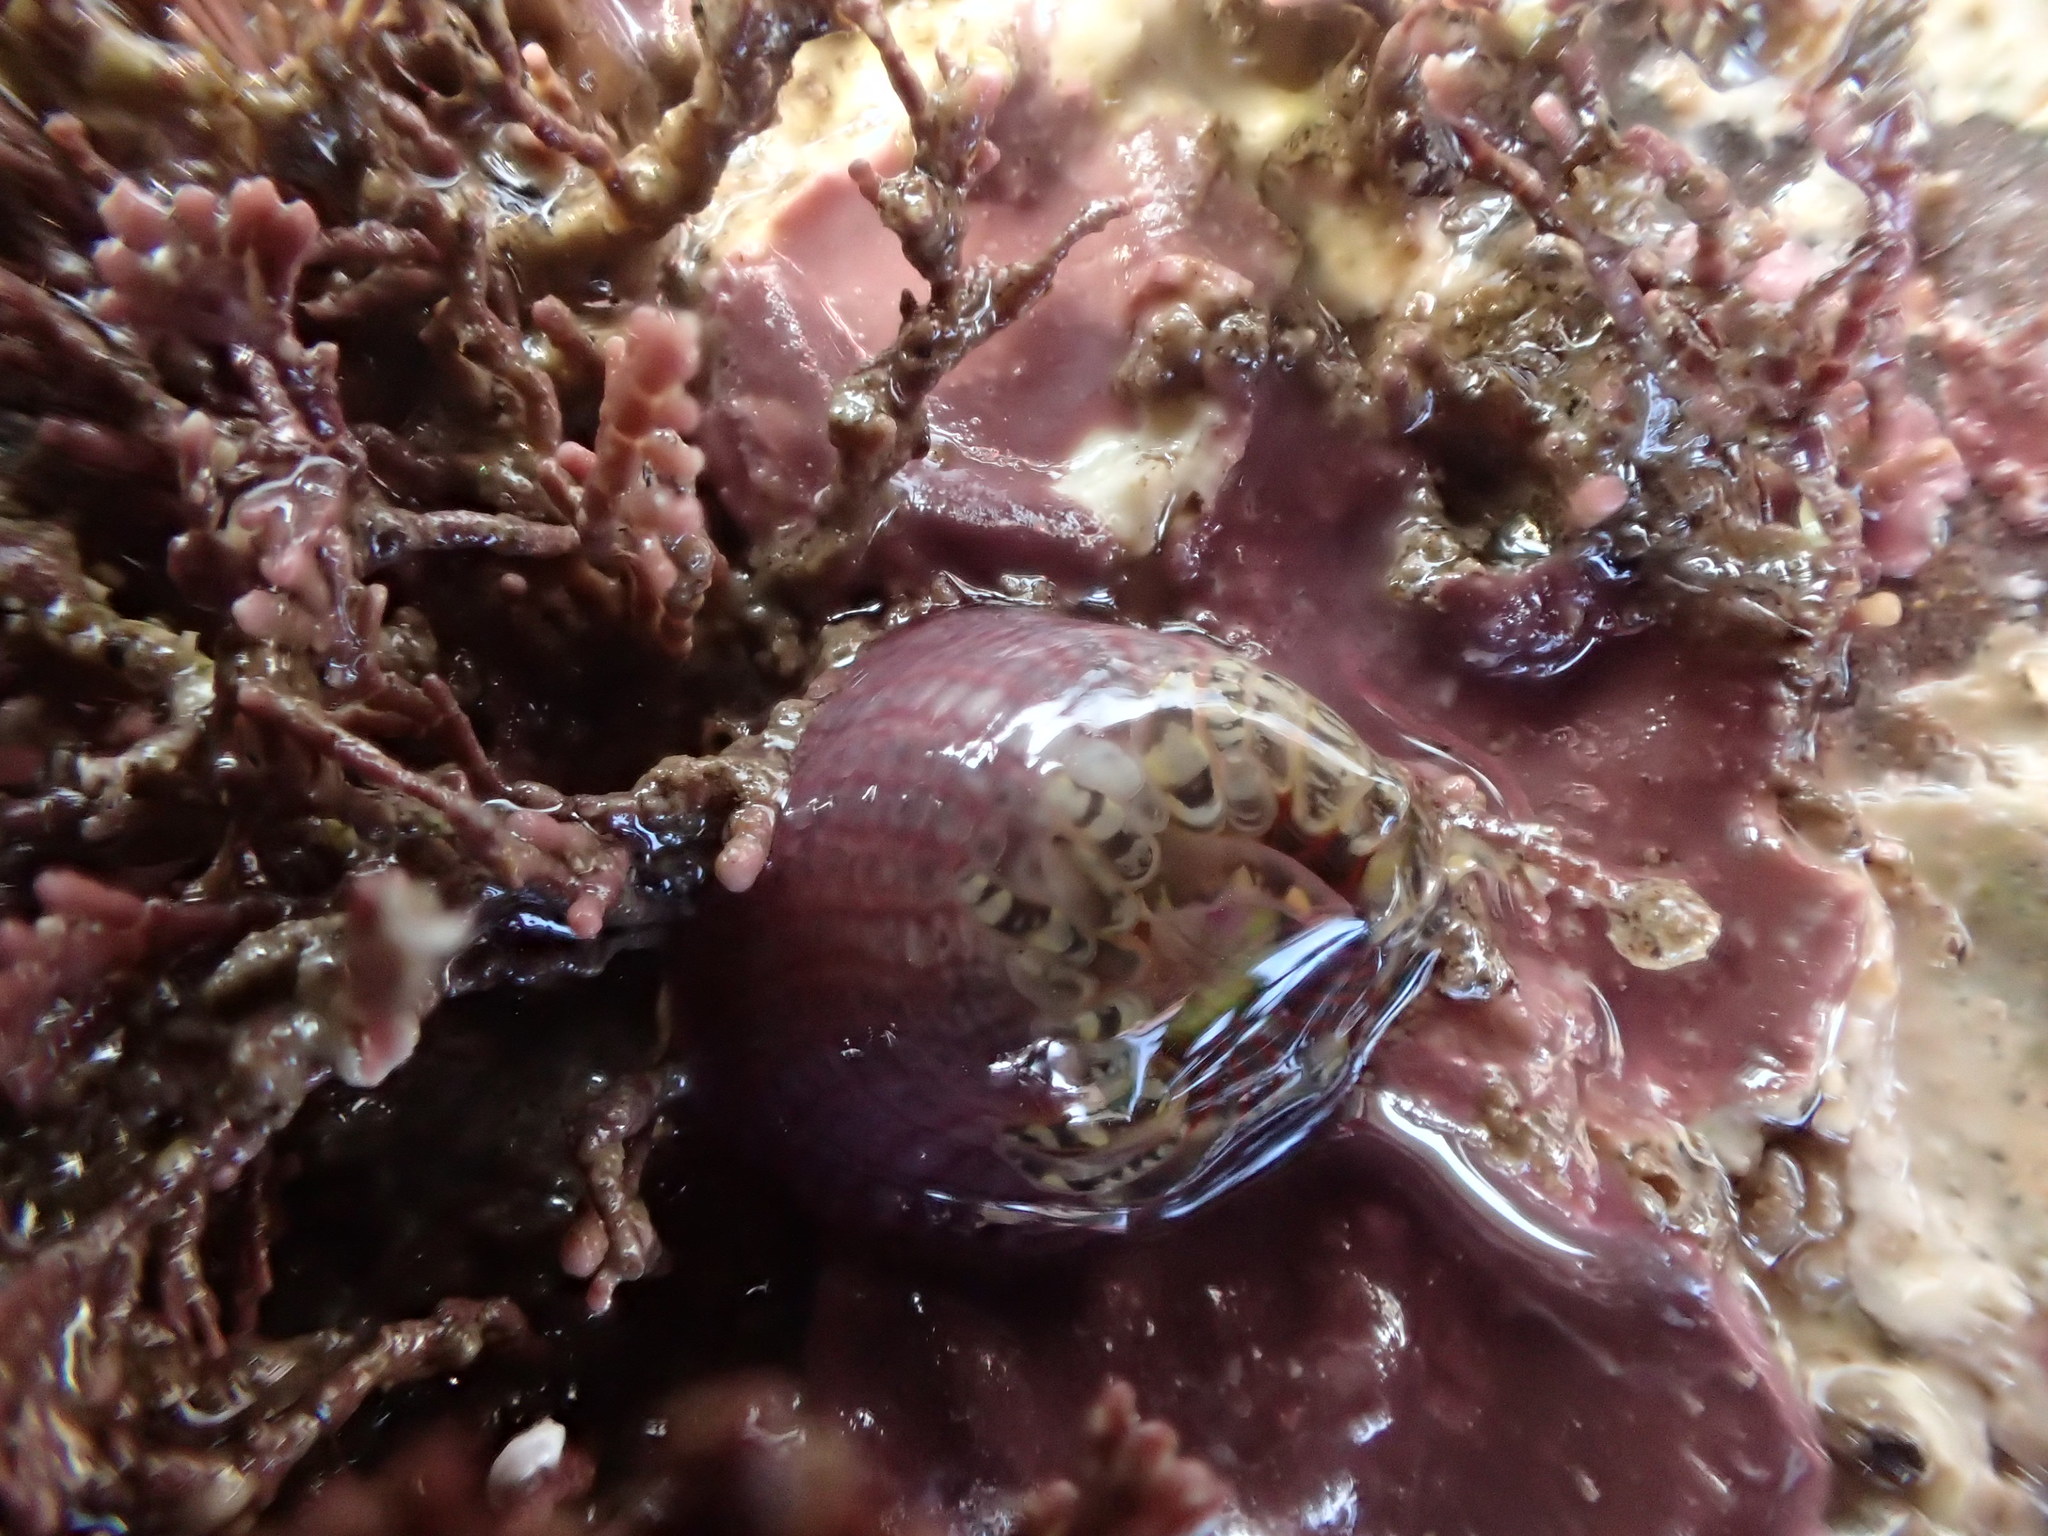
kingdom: Animalia
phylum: Cnidaria
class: Anthozoa
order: Actiniaria
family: Actiniidae
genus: Bunodactis
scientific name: Bunodactis verrucosa
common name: Gem anemone
